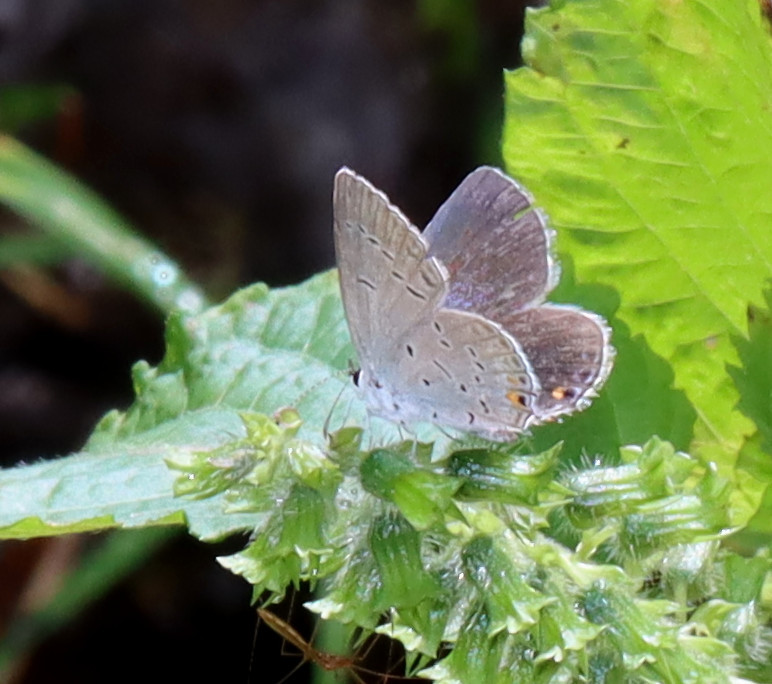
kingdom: Animalia
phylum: Arthropoda
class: Insecta
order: Lepidoptera
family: Lycaenidae
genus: Elkalyce
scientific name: Elkalyce comyntas
